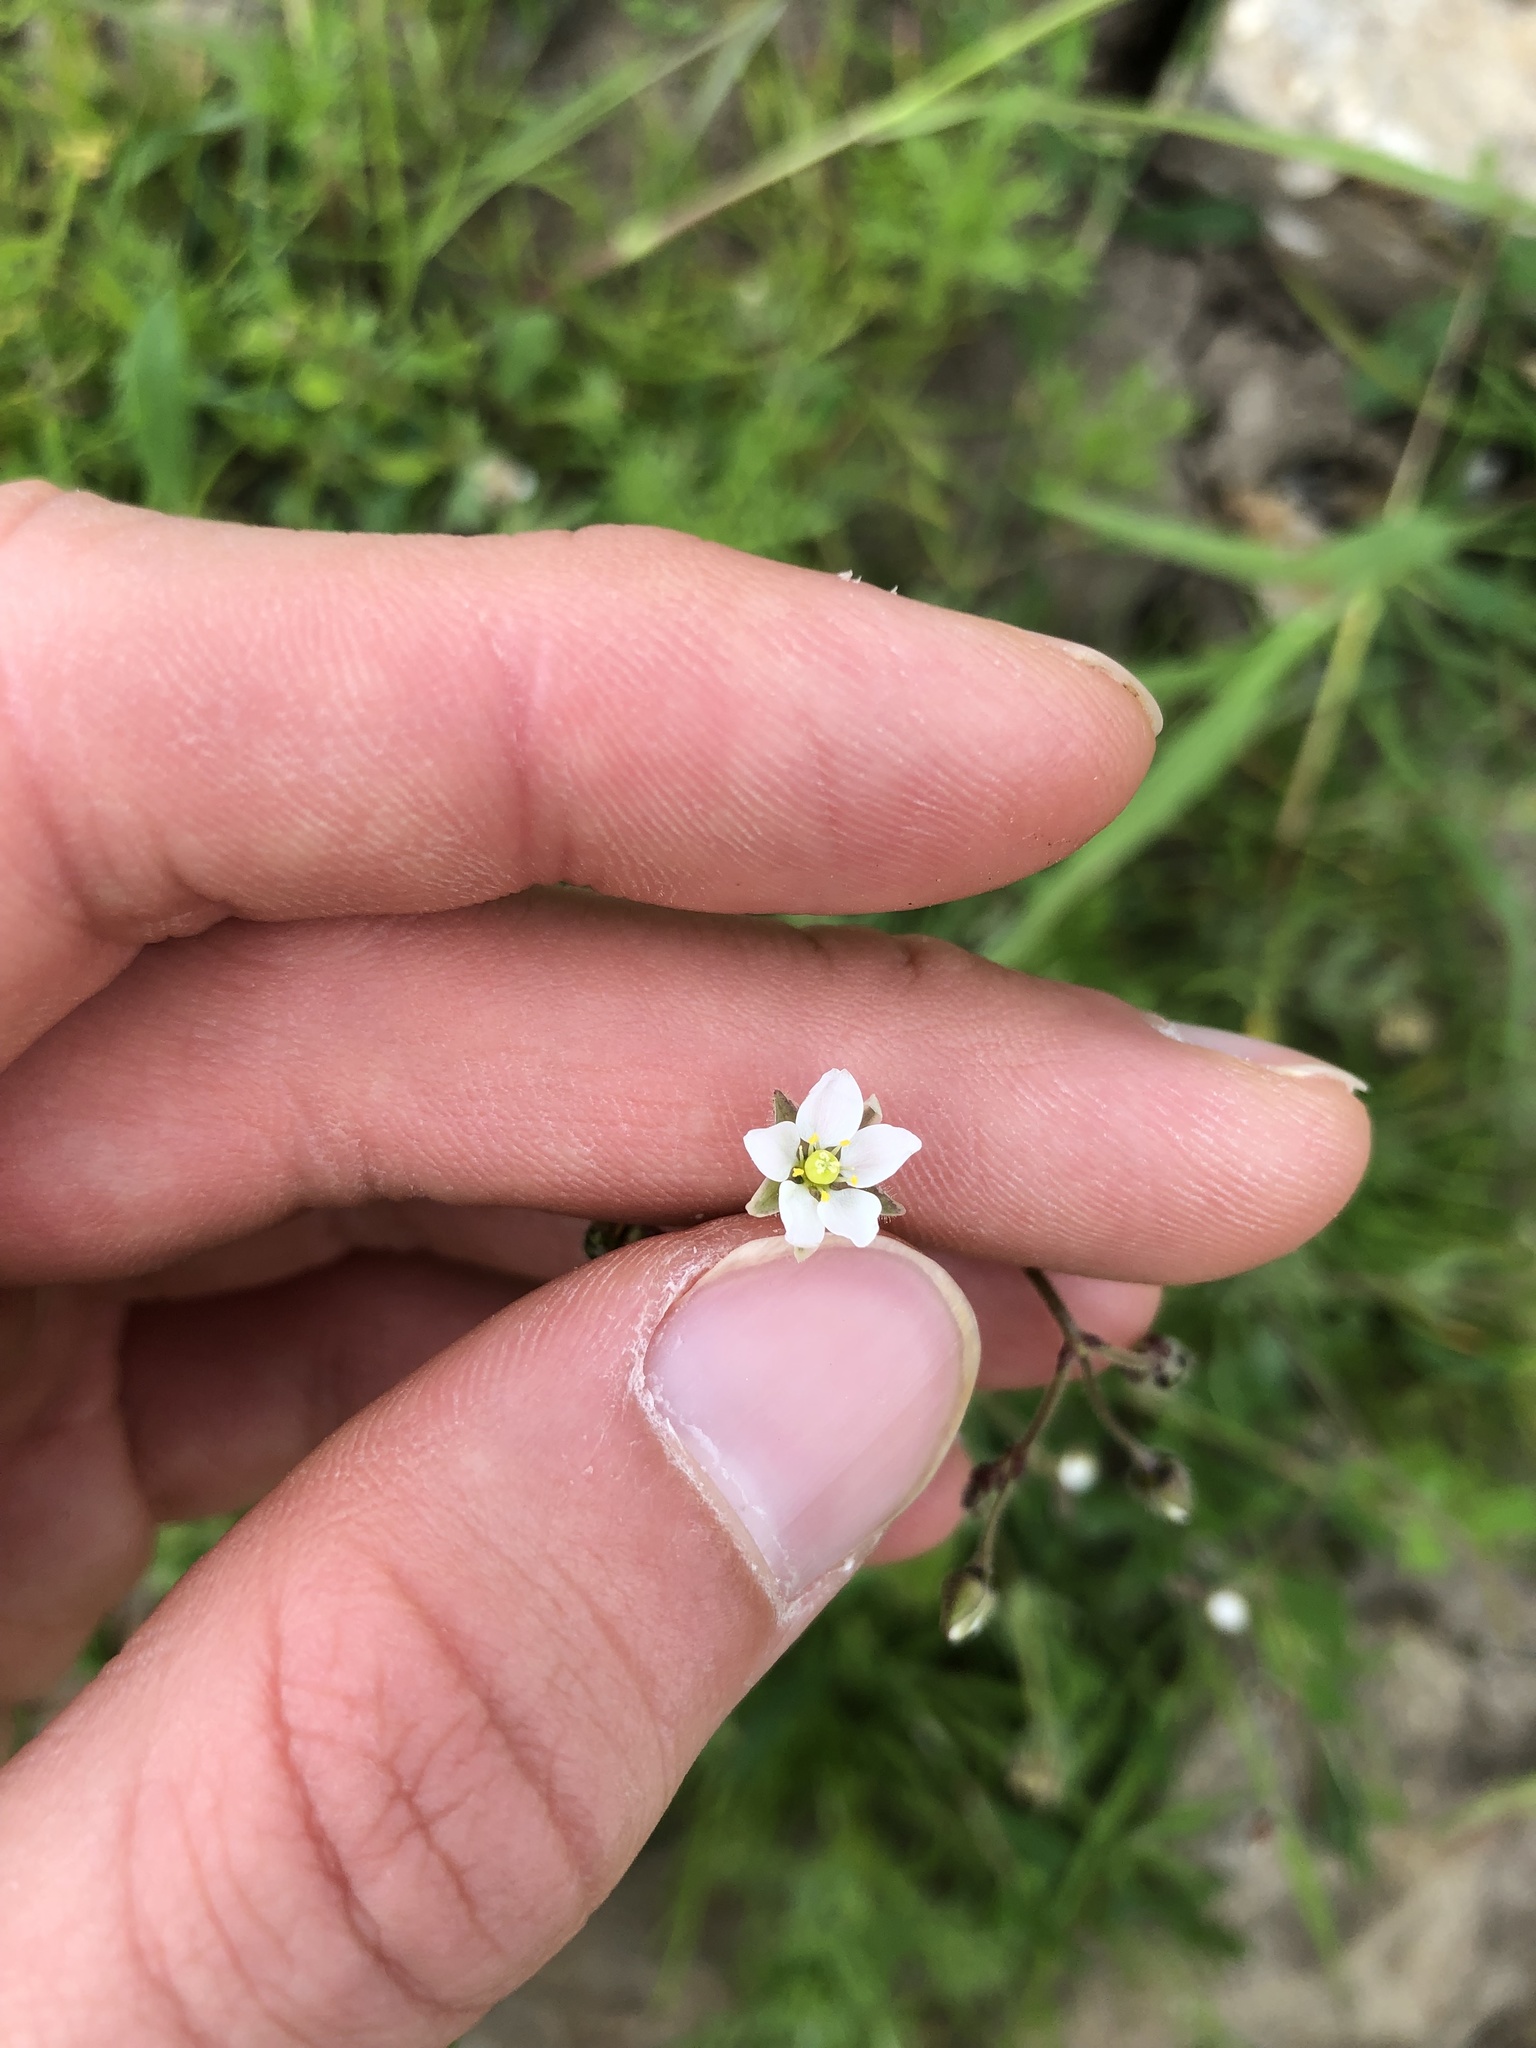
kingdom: Plantae
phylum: Tracheophyta
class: Magnoliopsida
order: Caryophyllales
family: Caryophyllaceae
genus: Spergula
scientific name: Spergula arvensis
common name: Corn spurrey
